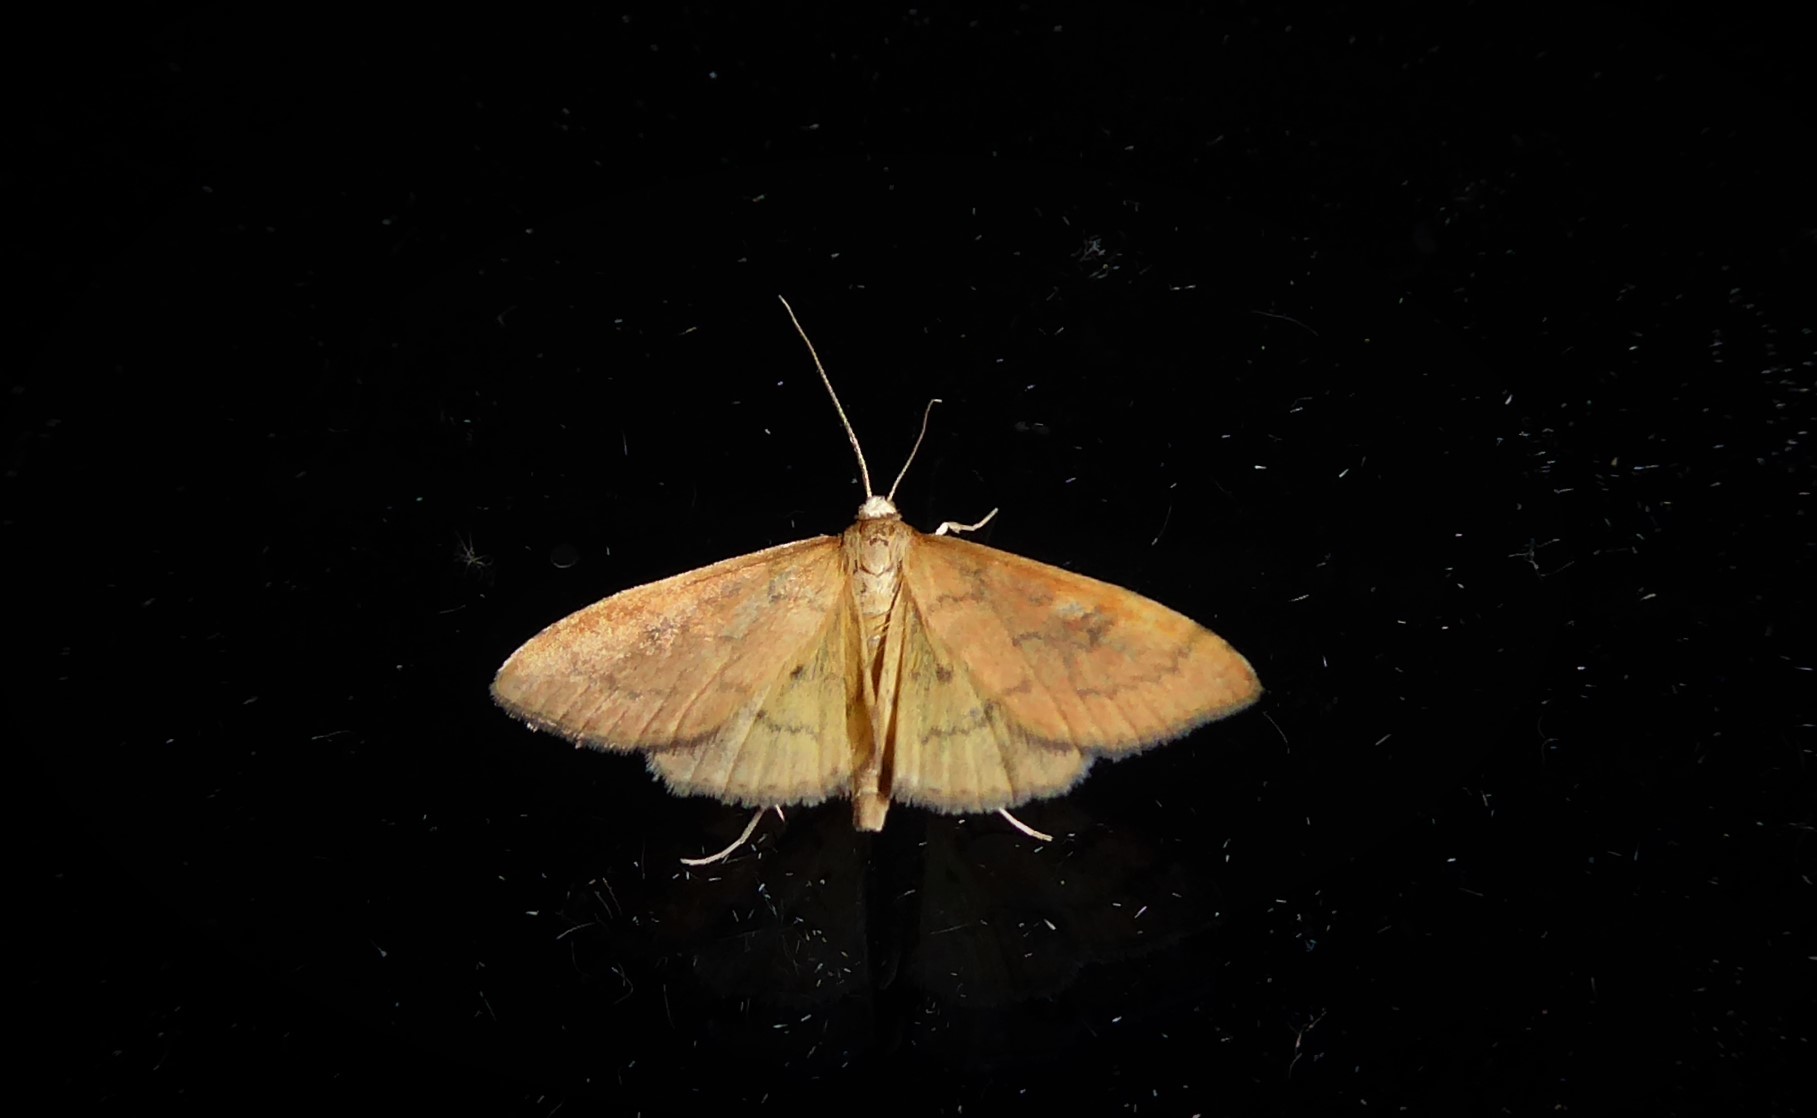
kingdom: Animalia
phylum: Arthropoda
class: Insecta
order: Lepidoptera
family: Crambidae
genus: Udea
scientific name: Udea Mnesictena flavidalis
